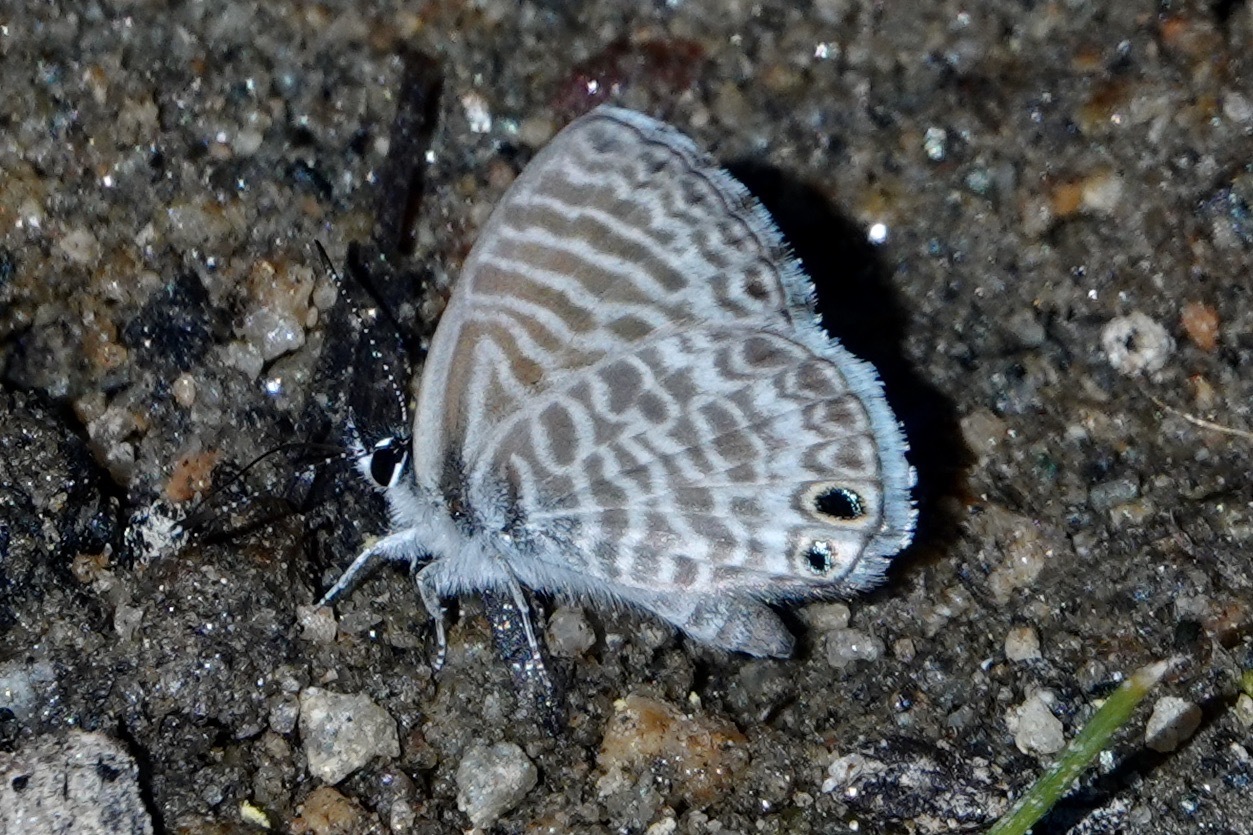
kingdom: Animalia
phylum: Arthropoda
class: Insecta
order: Lepidoptera
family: Lycaenidae
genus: Leptotes
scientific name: Leptotes marina
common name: Marine blue
